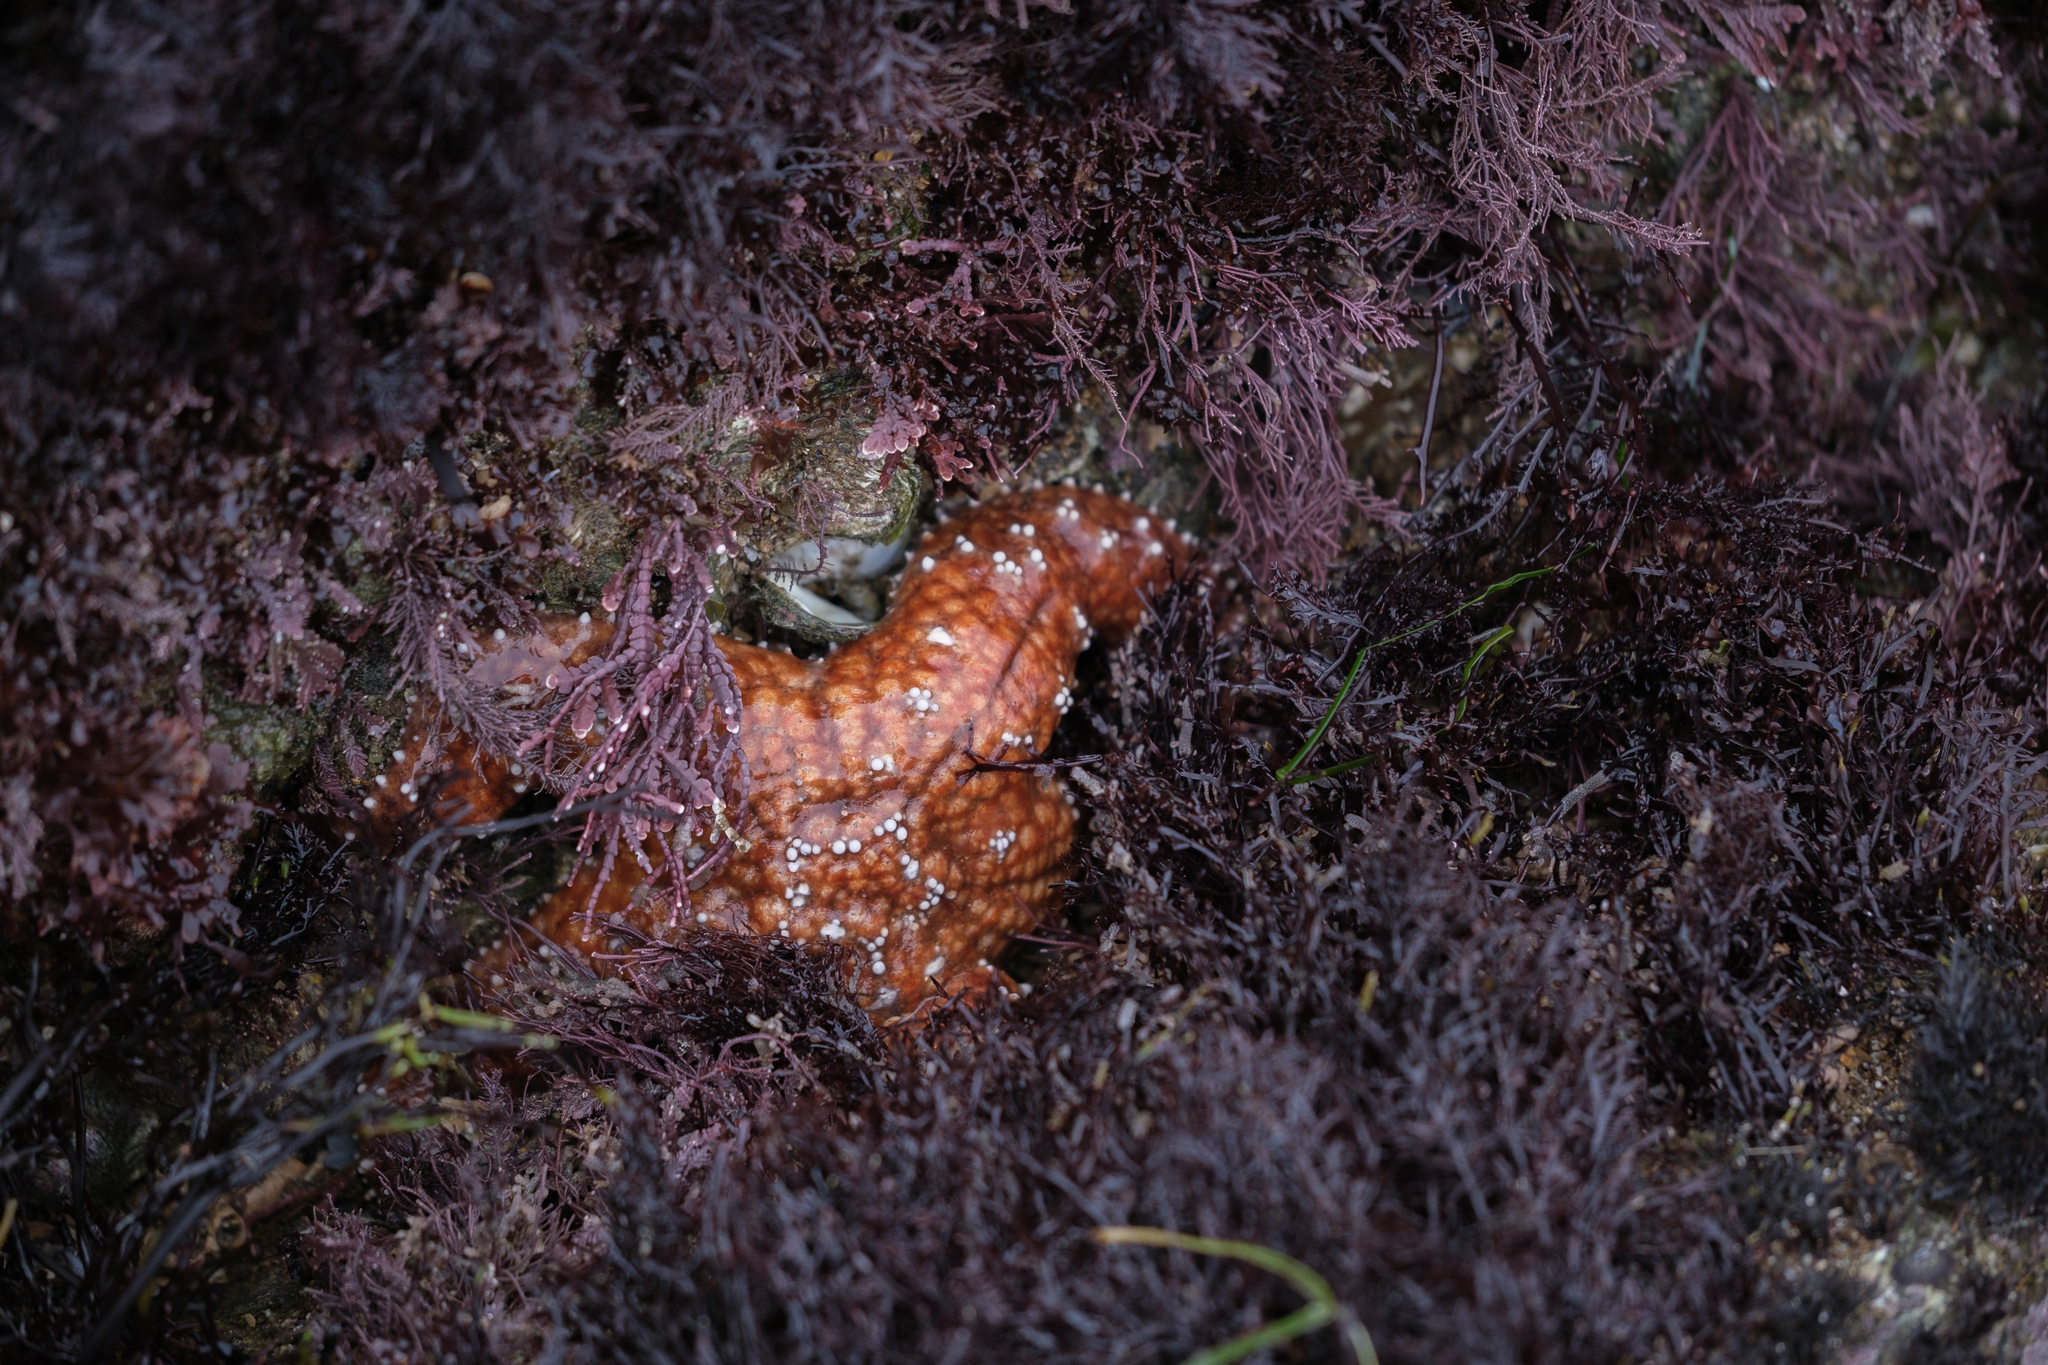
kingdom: Animalia
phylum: Echinodermata
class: Asteroidea
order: Forcipulatida
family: Asteriidae
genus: Pisaster
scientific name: Pisaster ochraceus
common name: Ochre stars
